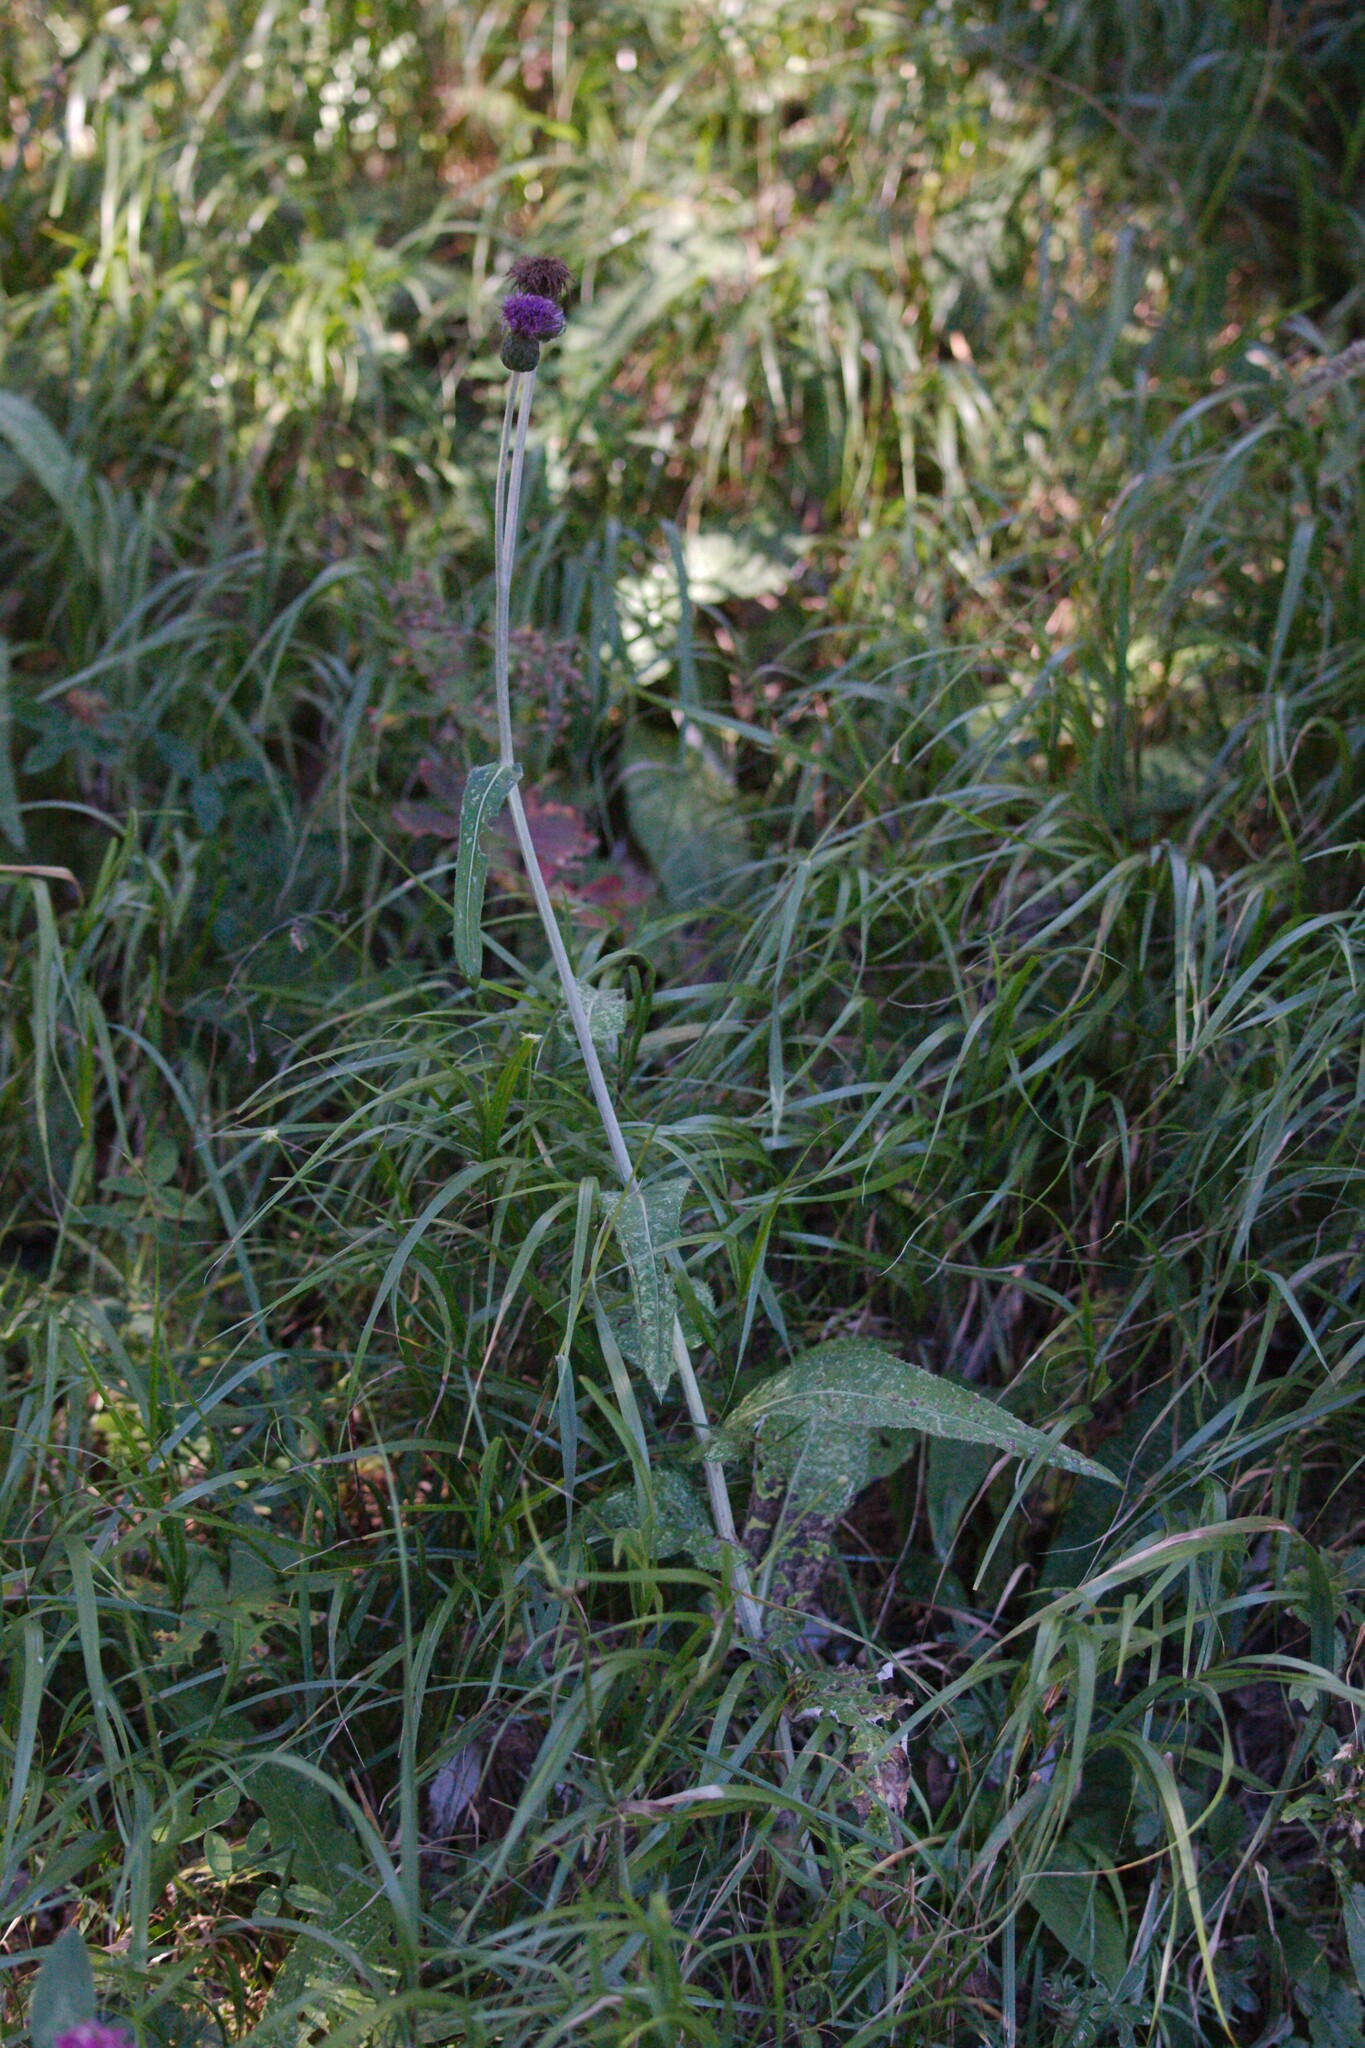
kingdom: Plantae
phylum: Tracheophyta
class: Magnoliopsida
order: Asterales
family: Asteraceae
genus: Cirsium
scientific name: Cirsium heterophyllum
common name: Melancholy thistle
